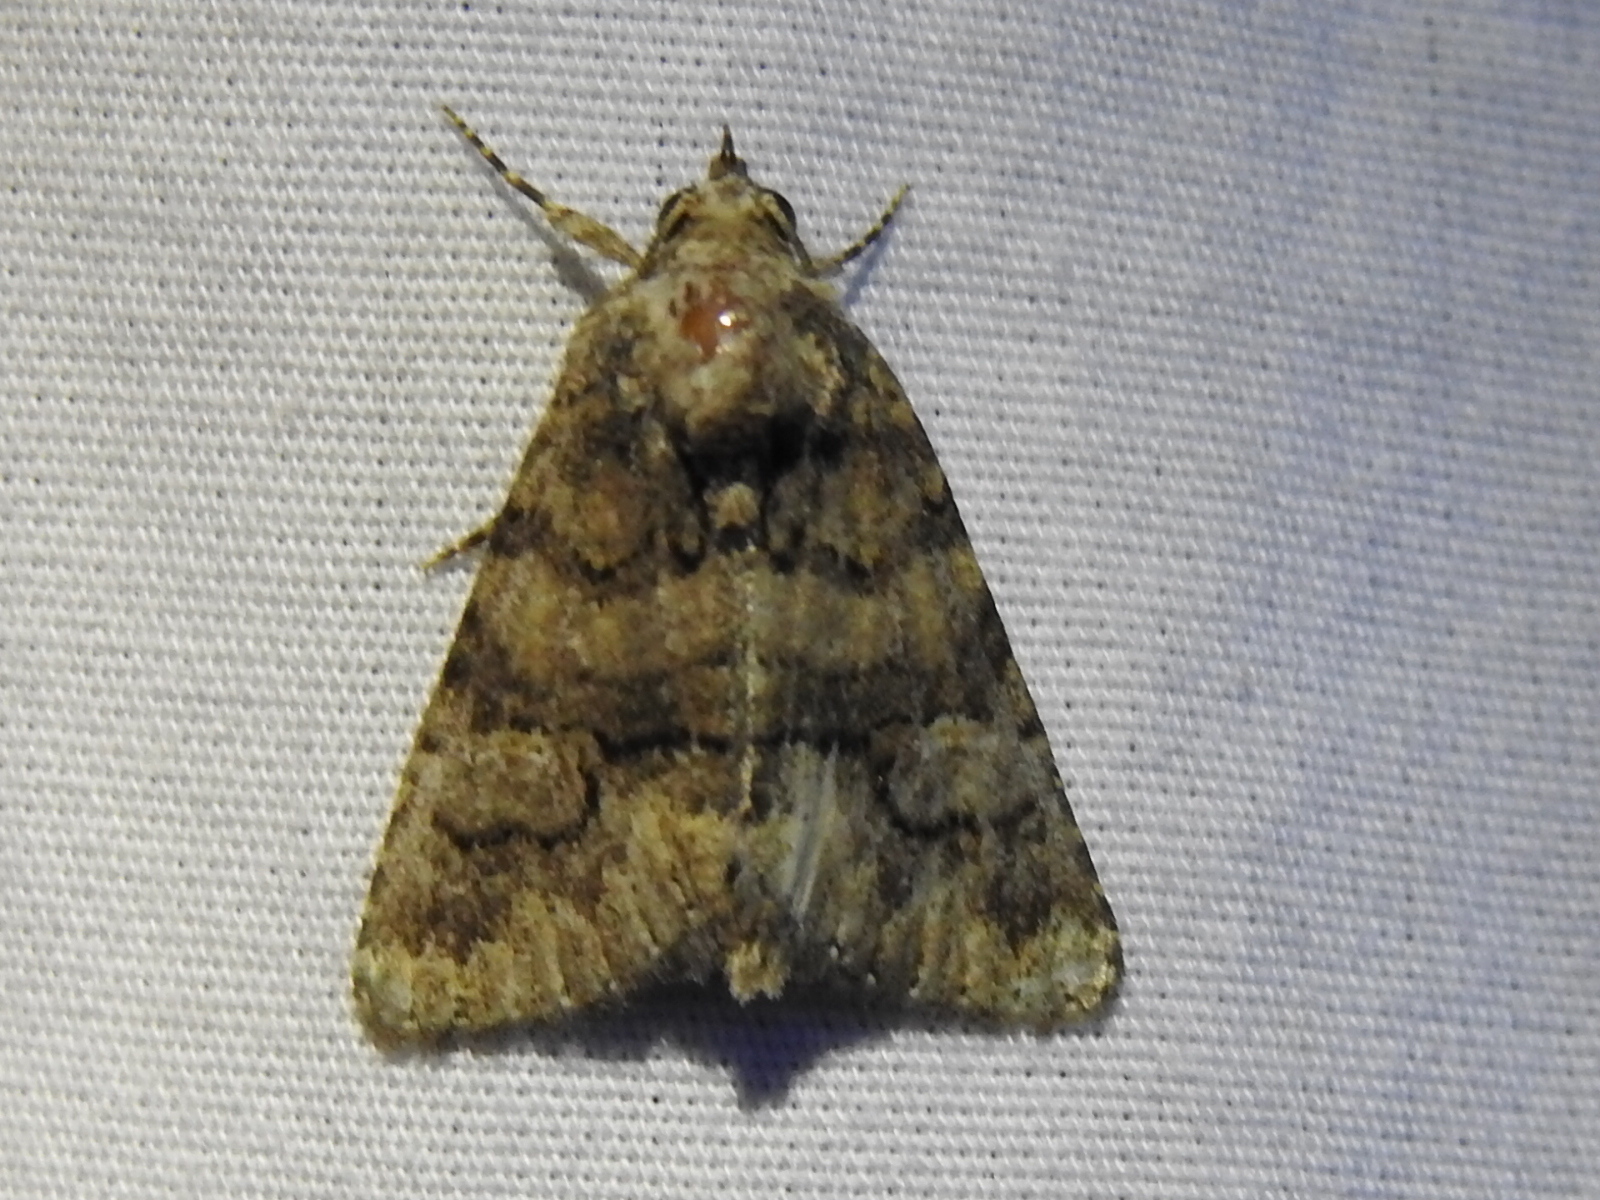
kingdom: Animalia
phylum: Arthropoda
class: Insecta
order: Lepidoptera
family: Erebidae
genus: Elousa
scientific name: Elousa mima
